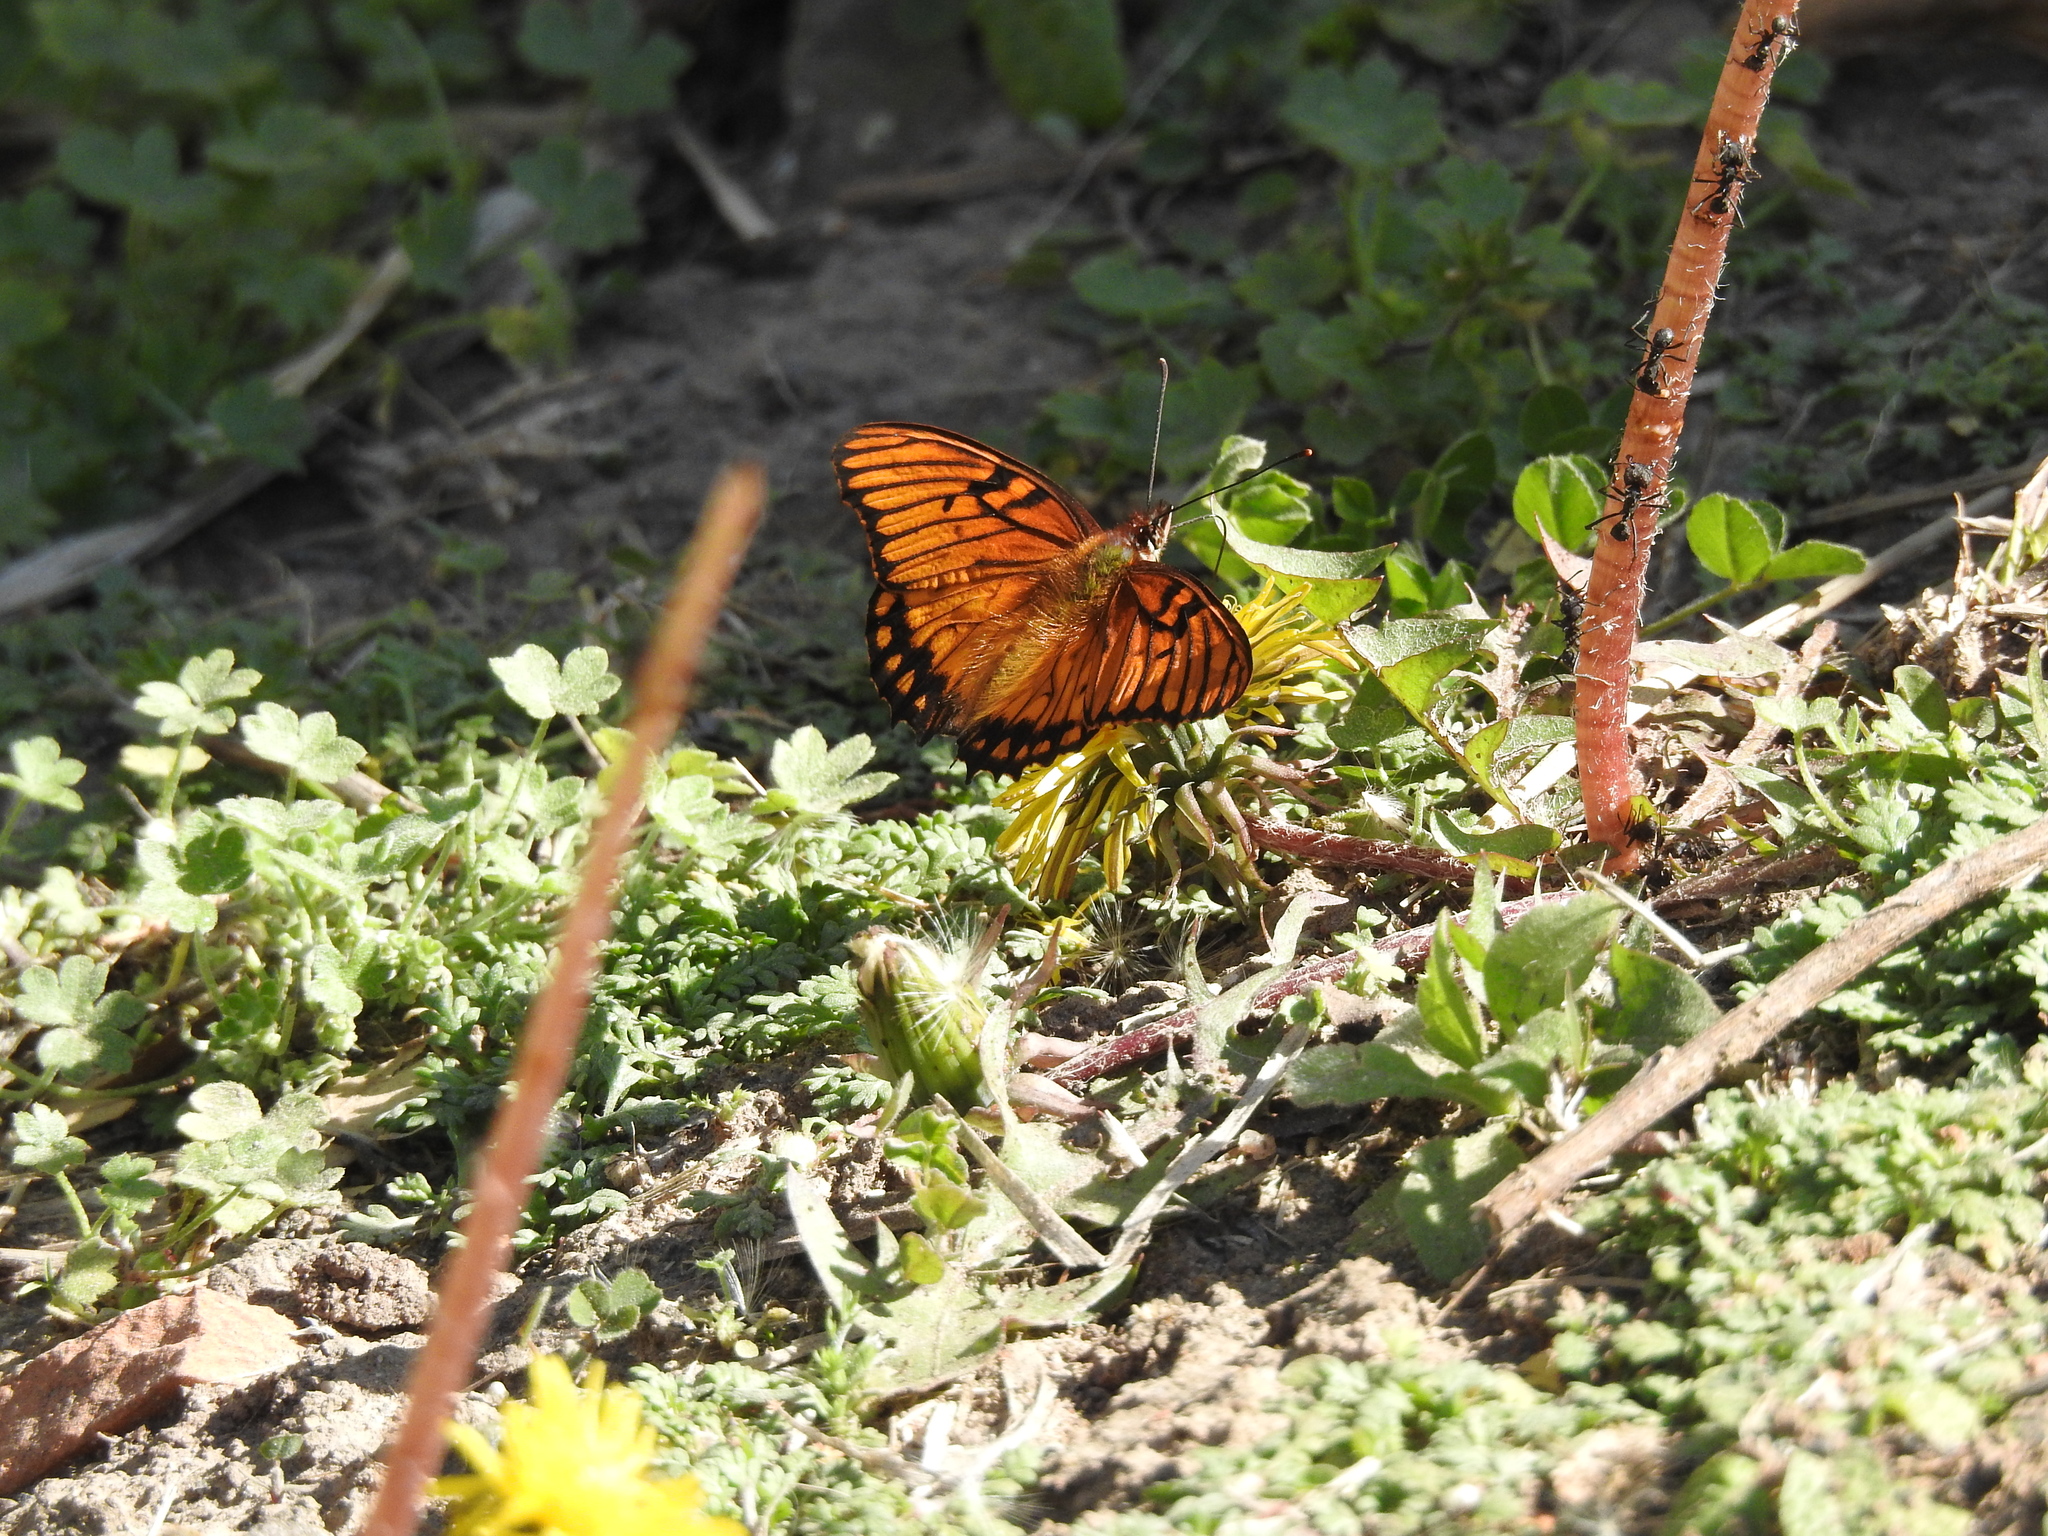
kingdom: Animalia
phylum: Arthropoda
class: Insecta
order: Lepidoptera
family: Nymphalidae
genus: Dione
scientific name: Dione moneta
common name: Mexican silverspot
